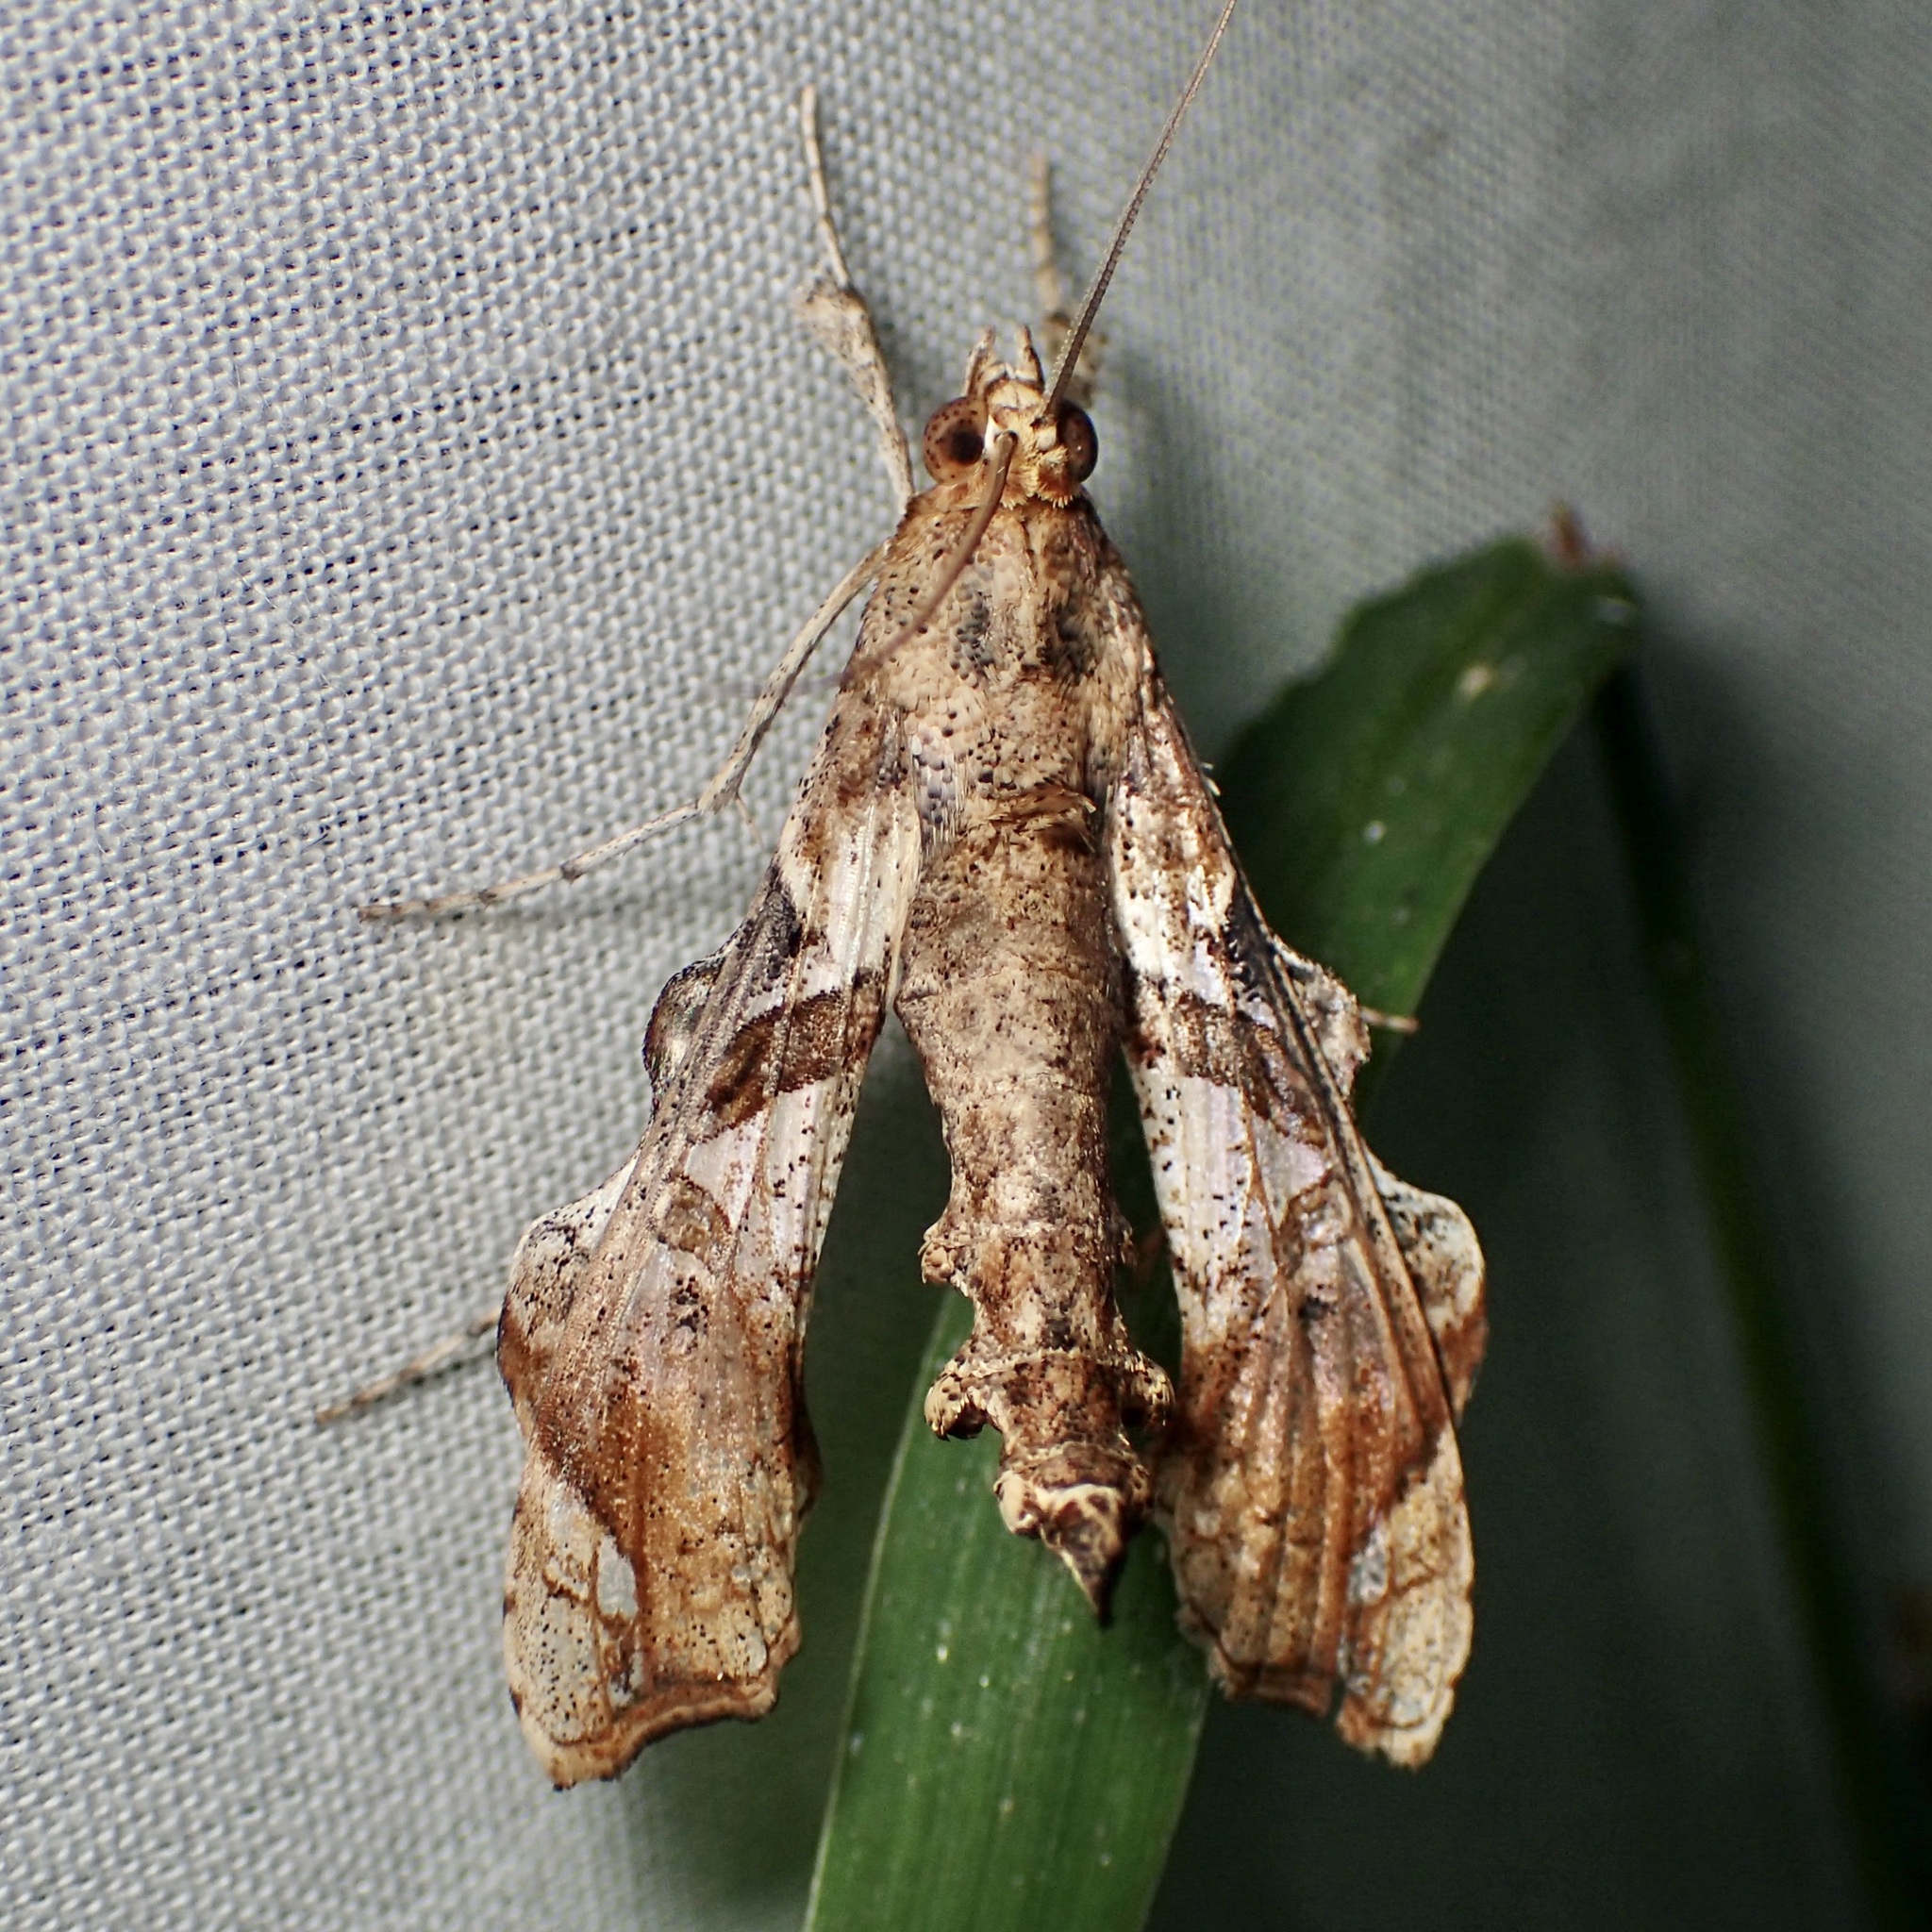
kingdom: Animalia
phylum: Arthropoda
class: Insecta
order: Lepidoptera
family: Crambidae
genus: Terastia
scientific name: Terastia meticulosalis
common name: Moth
